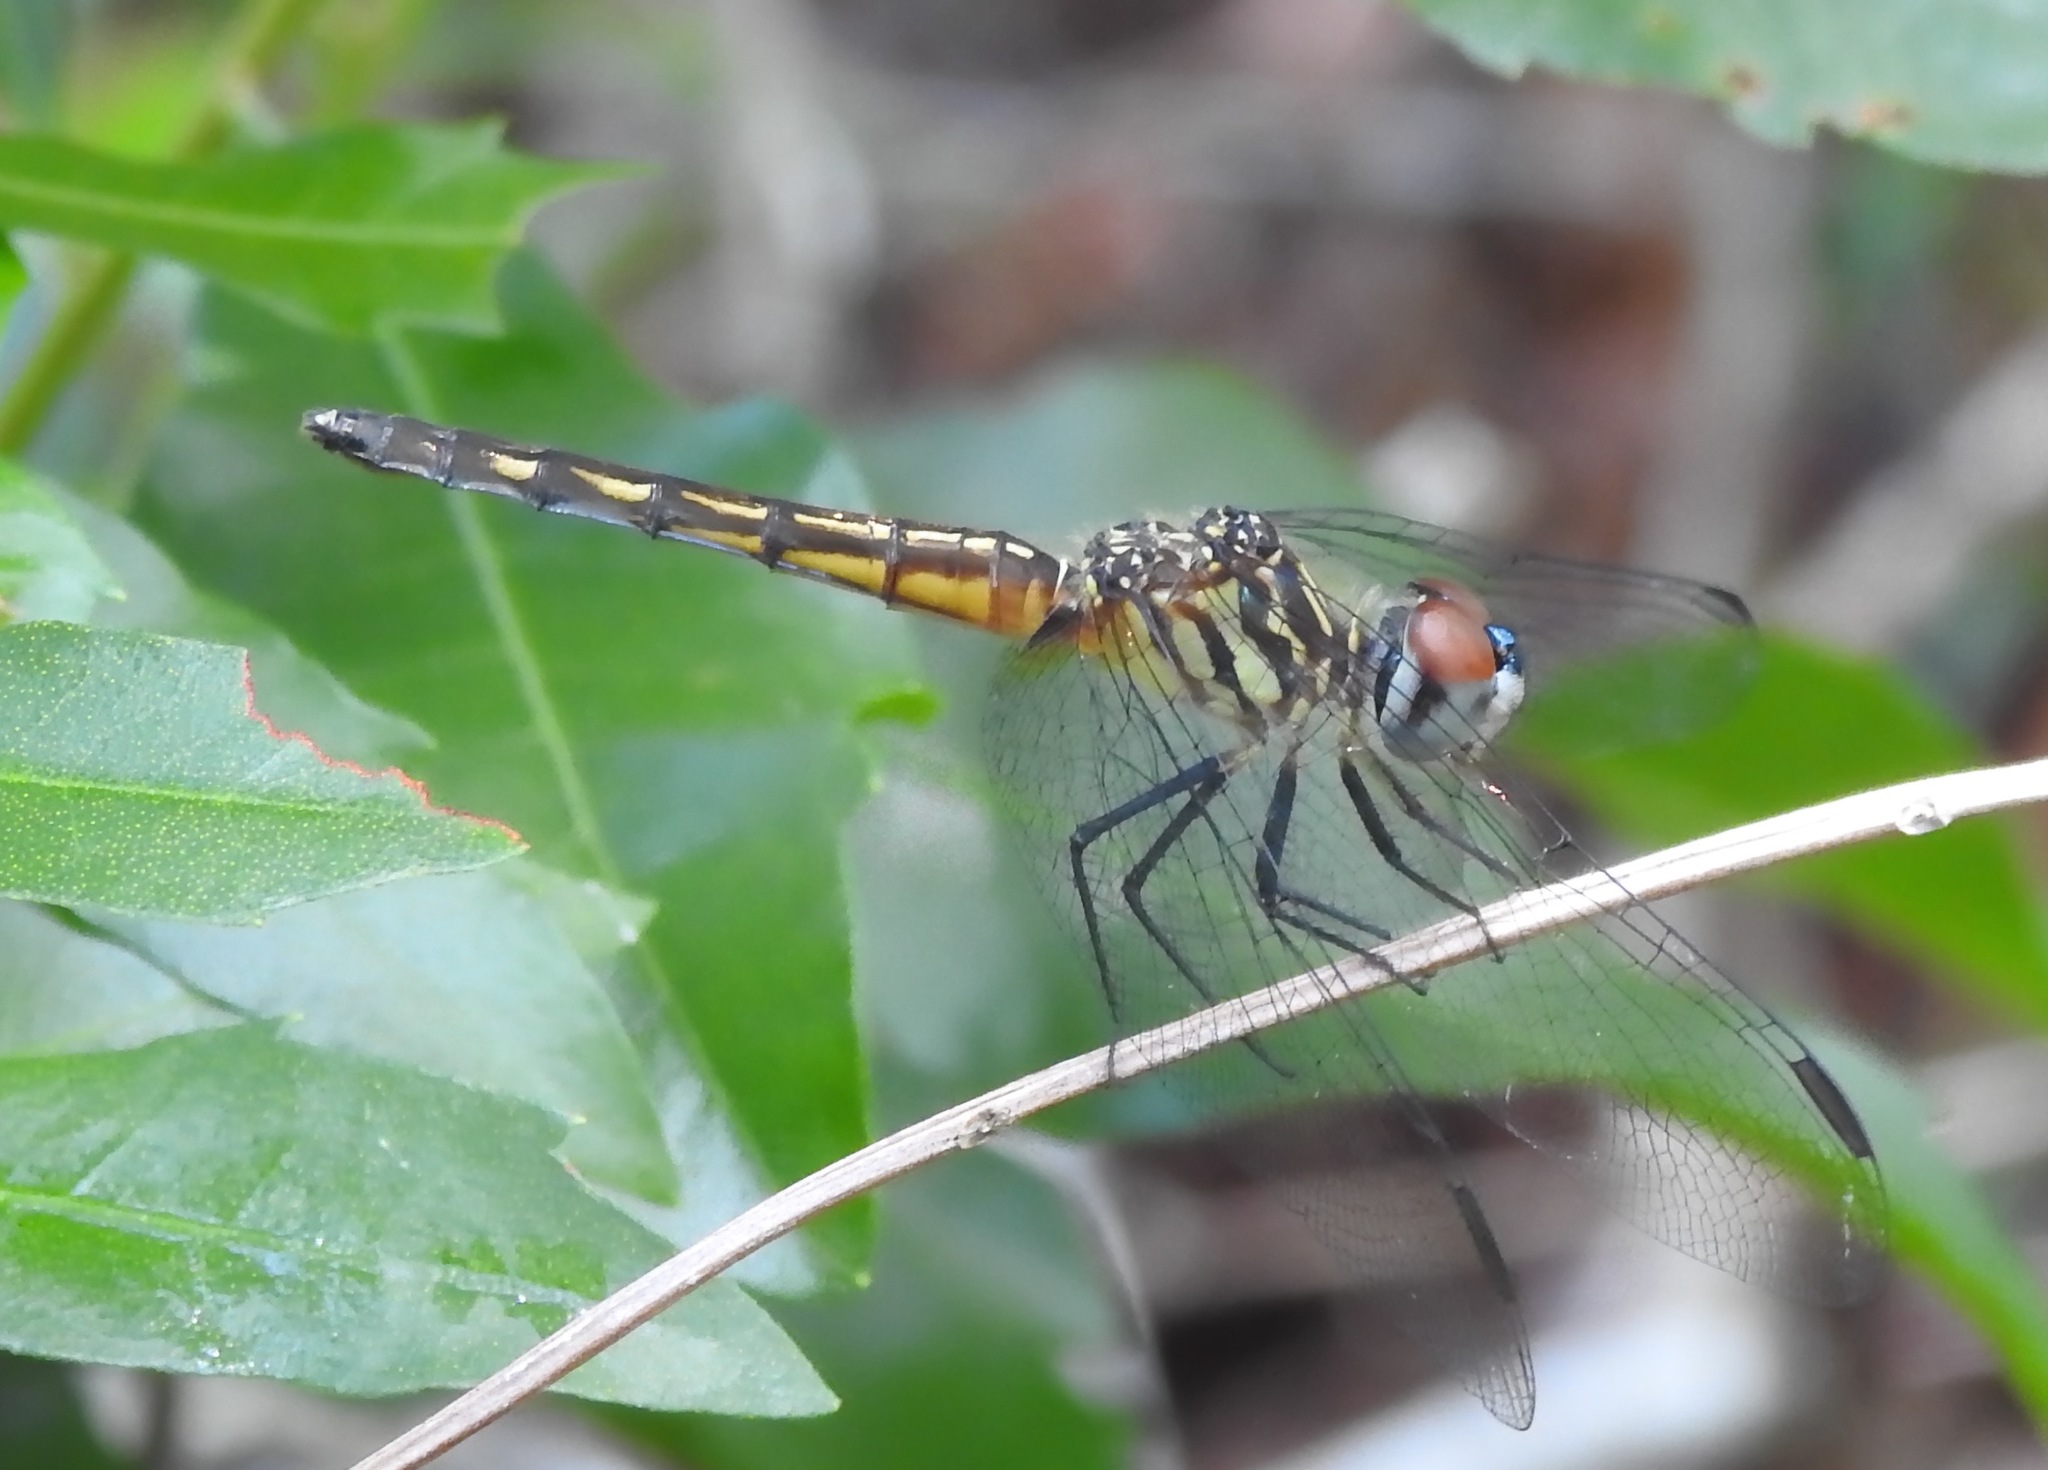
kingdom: Animalia
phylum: Arthropoda
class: Insecta
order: Odonata
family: Libellulidae
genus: Pachydiplax
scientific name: Pachydiplax longipennis
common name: Blue dasher
